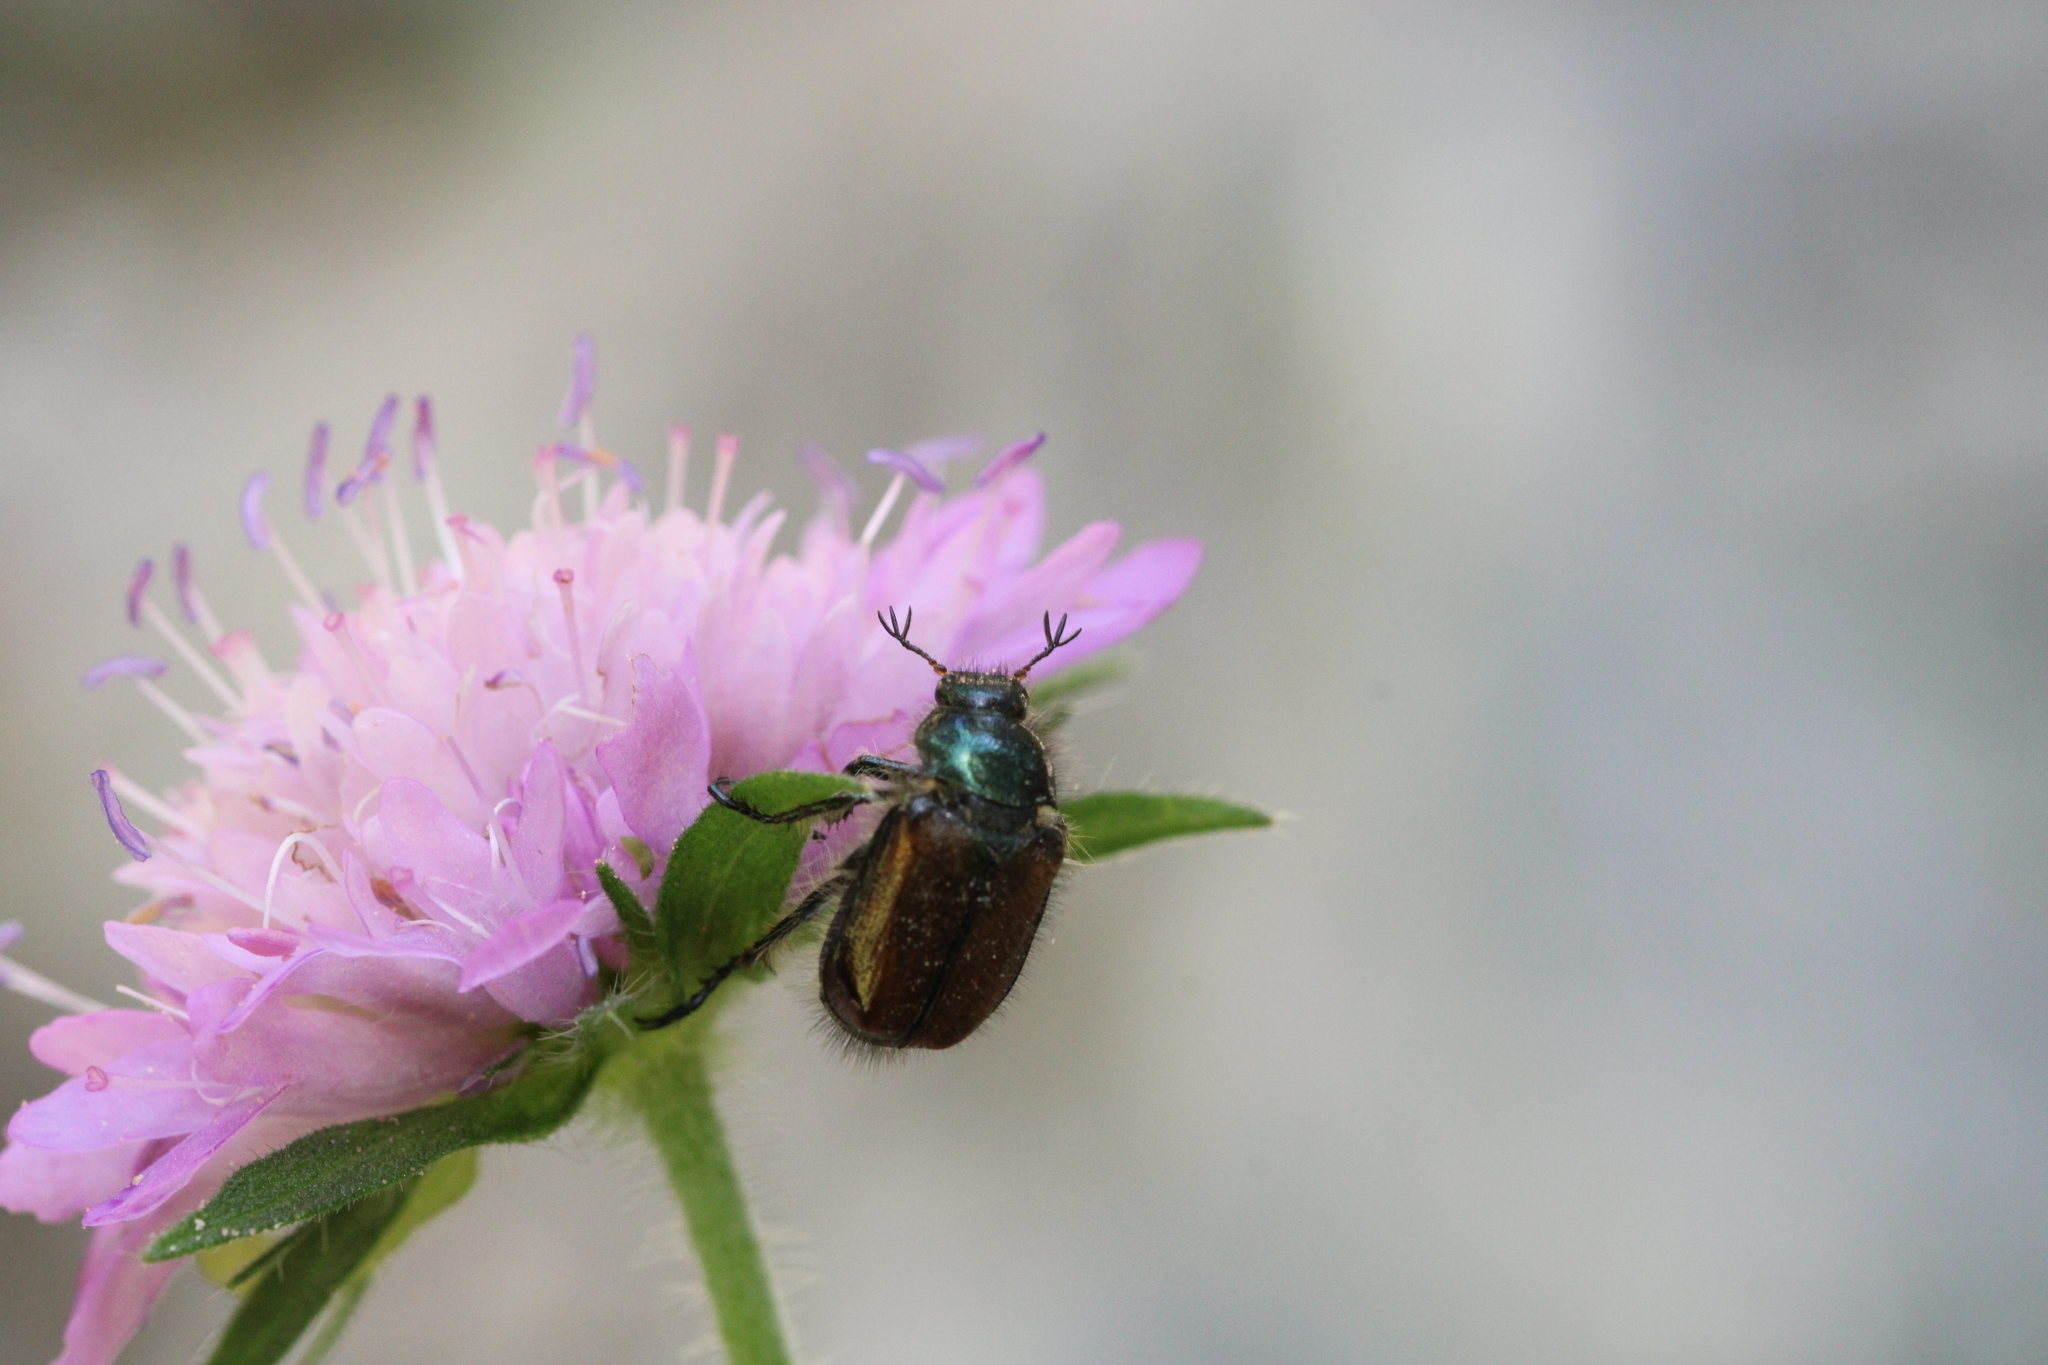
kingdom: Animalia
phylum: Arthropoda
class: Insecta
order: Coleoptera
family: Scarabaeidae
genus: Phyllopertha
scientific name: Phyllopertha horticola
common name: Garden chafer
